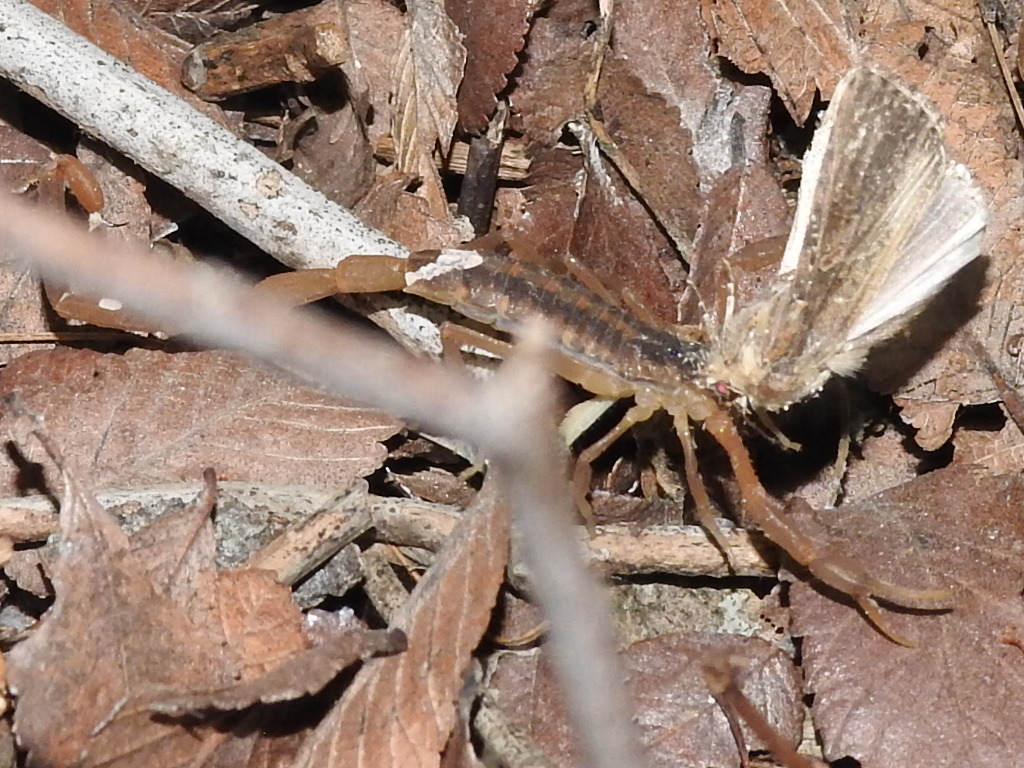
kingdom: Animalia
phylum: Arthropoda
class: Arachnida
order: Scorpiones
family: Buthidae
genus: Centruroides
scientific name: Centruroides vittatus
